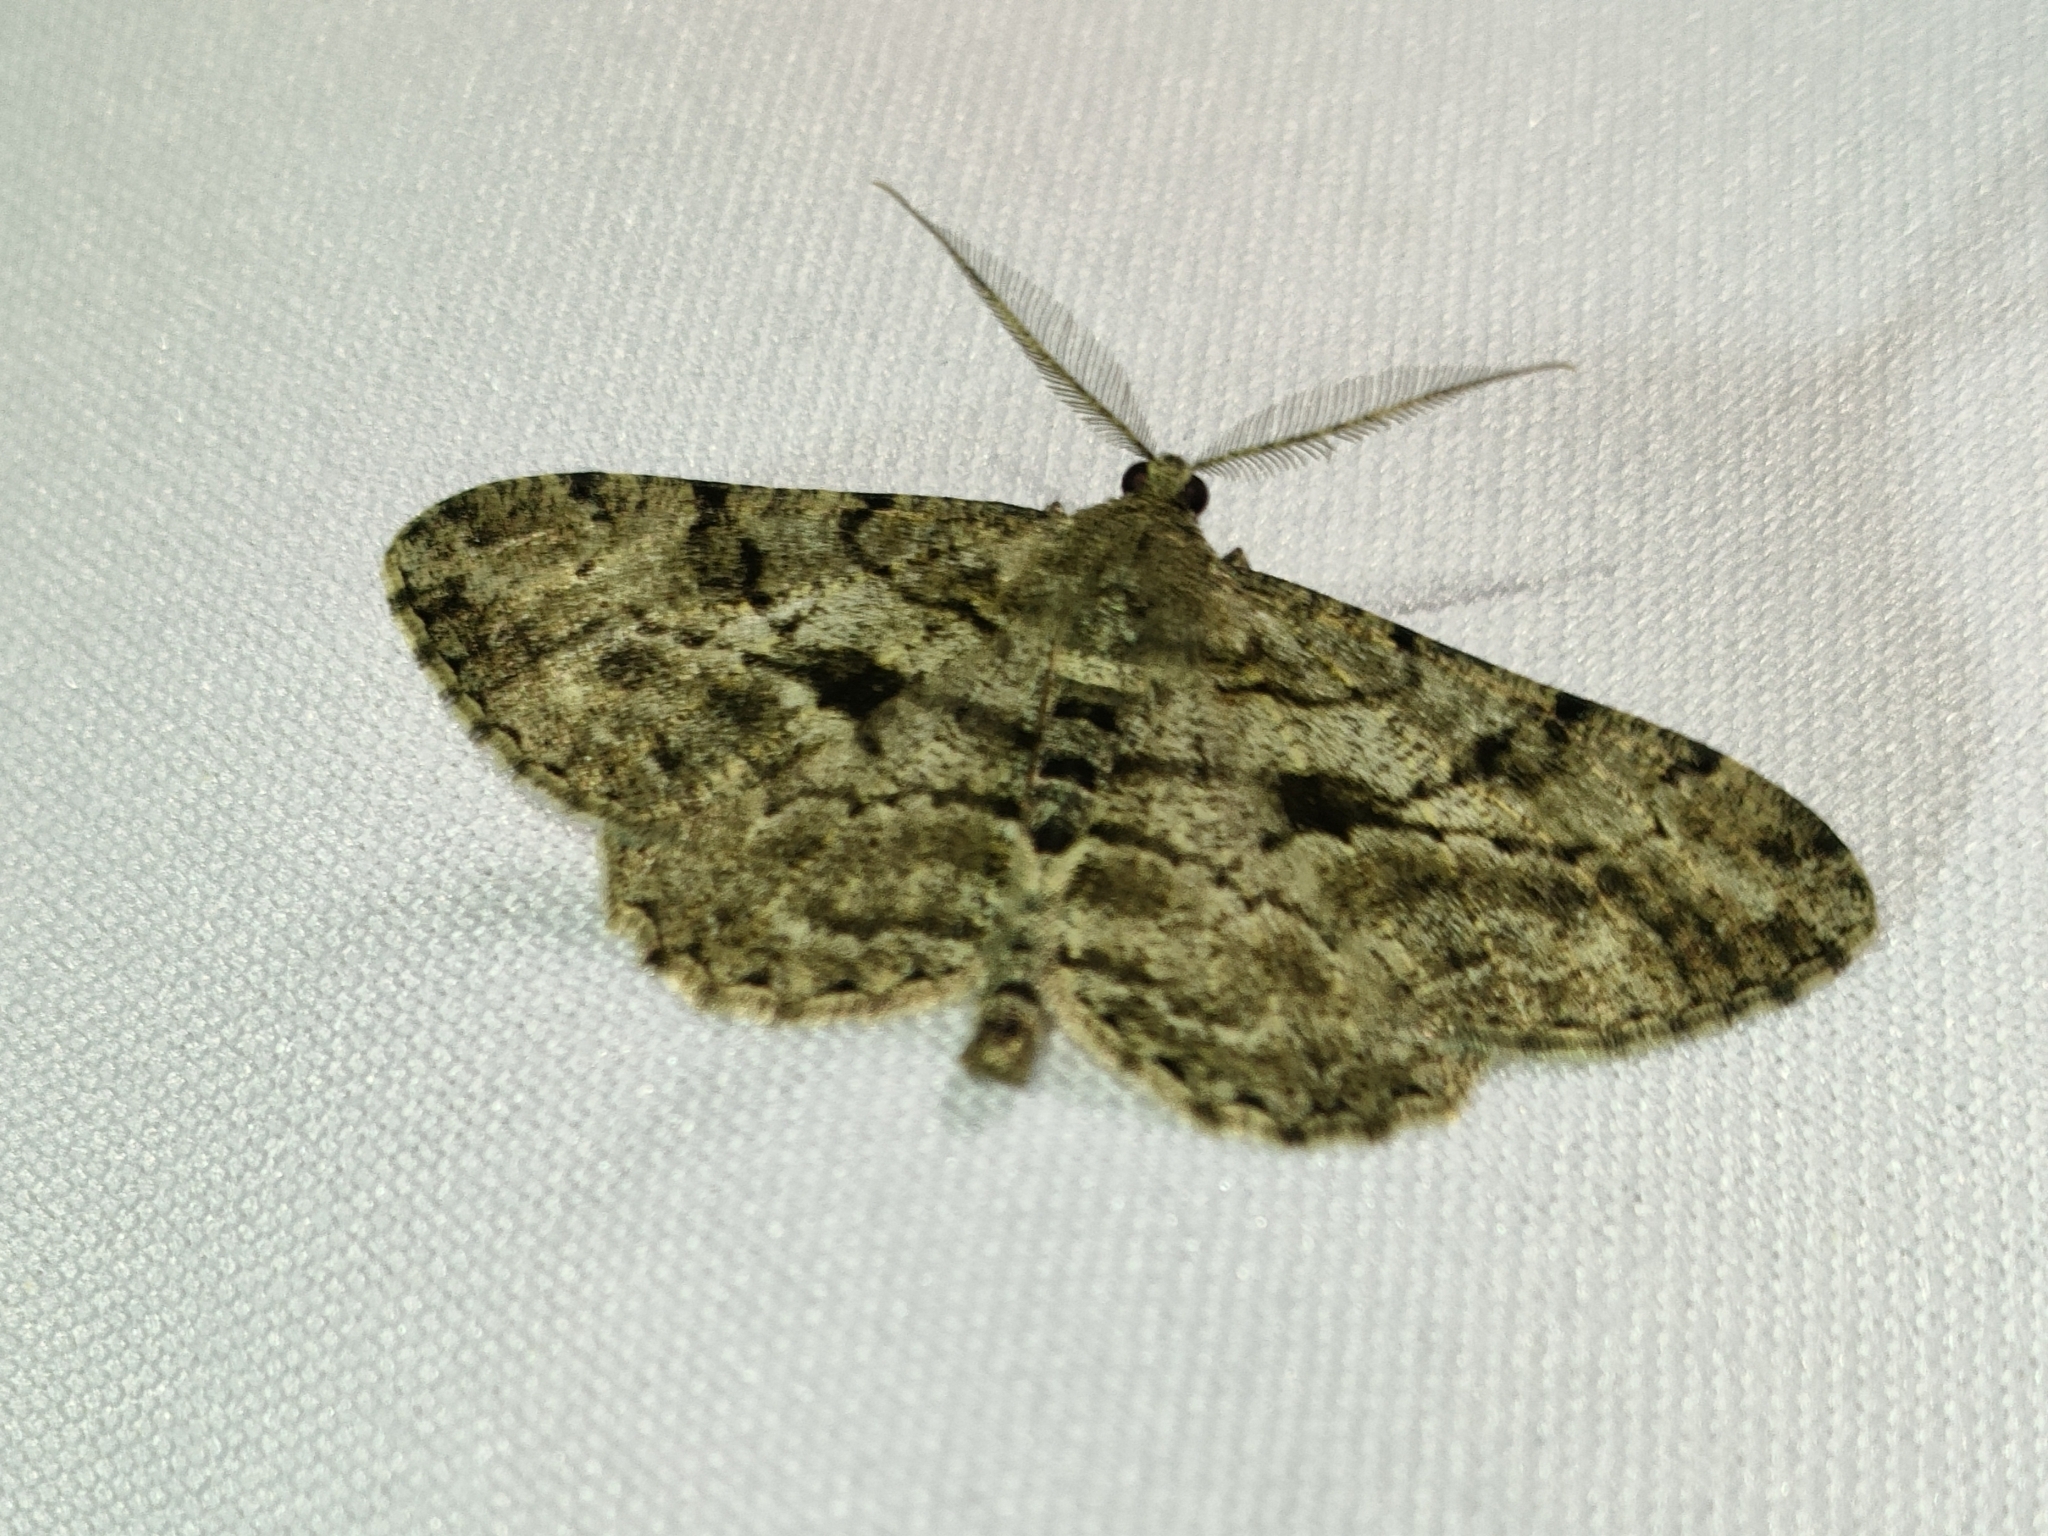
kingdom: Animalia
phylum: Arthropoda
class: Insecta
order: Lepidoptera
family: Geometridae
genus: Peribatodes
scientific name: Peribatodes rhomboidaria
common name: Willow beauty
